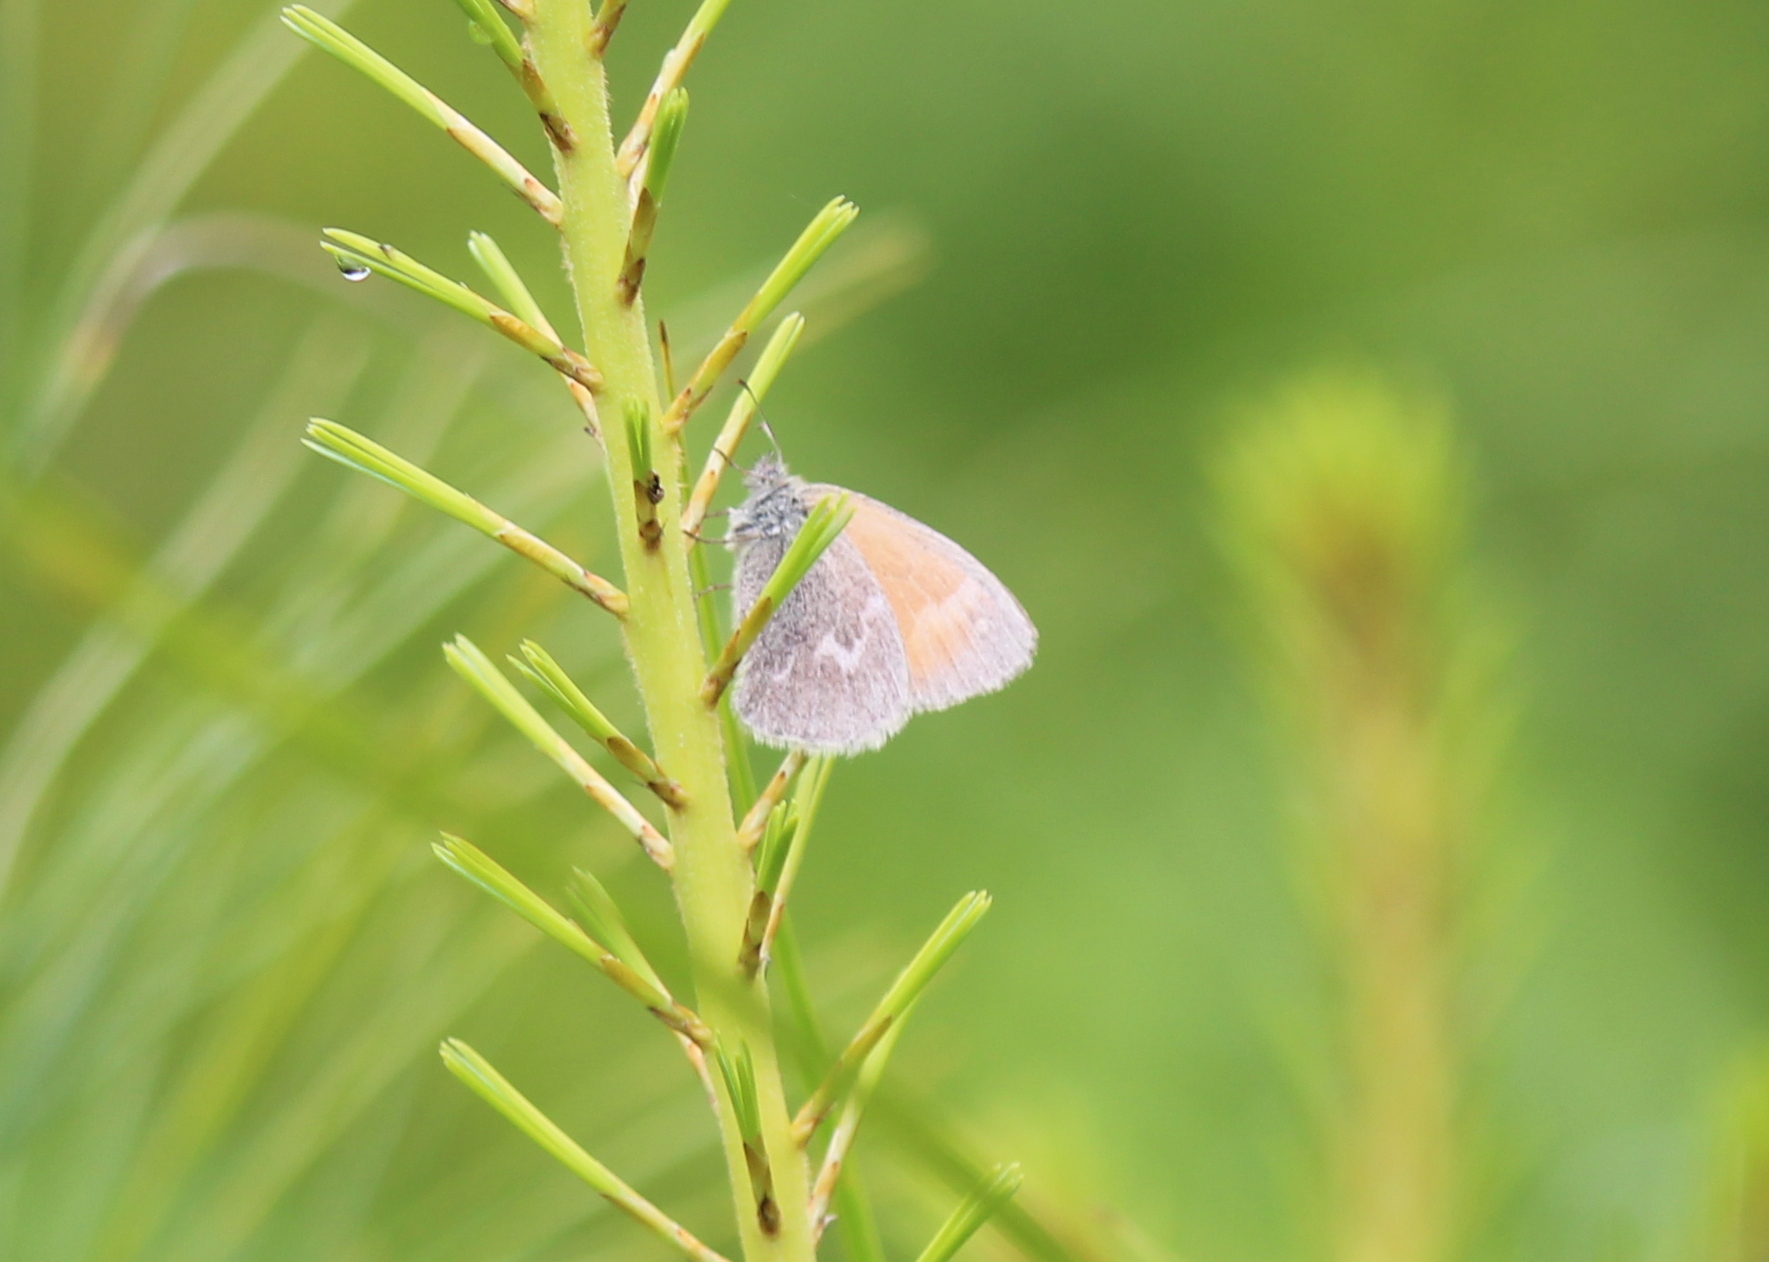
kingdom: Animalia
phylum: Arthropoda
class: Insecta
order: Lepidoptera
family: Nymphalidae
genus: Coenonympha
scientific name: Coenonympha california
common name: Common ringlet
